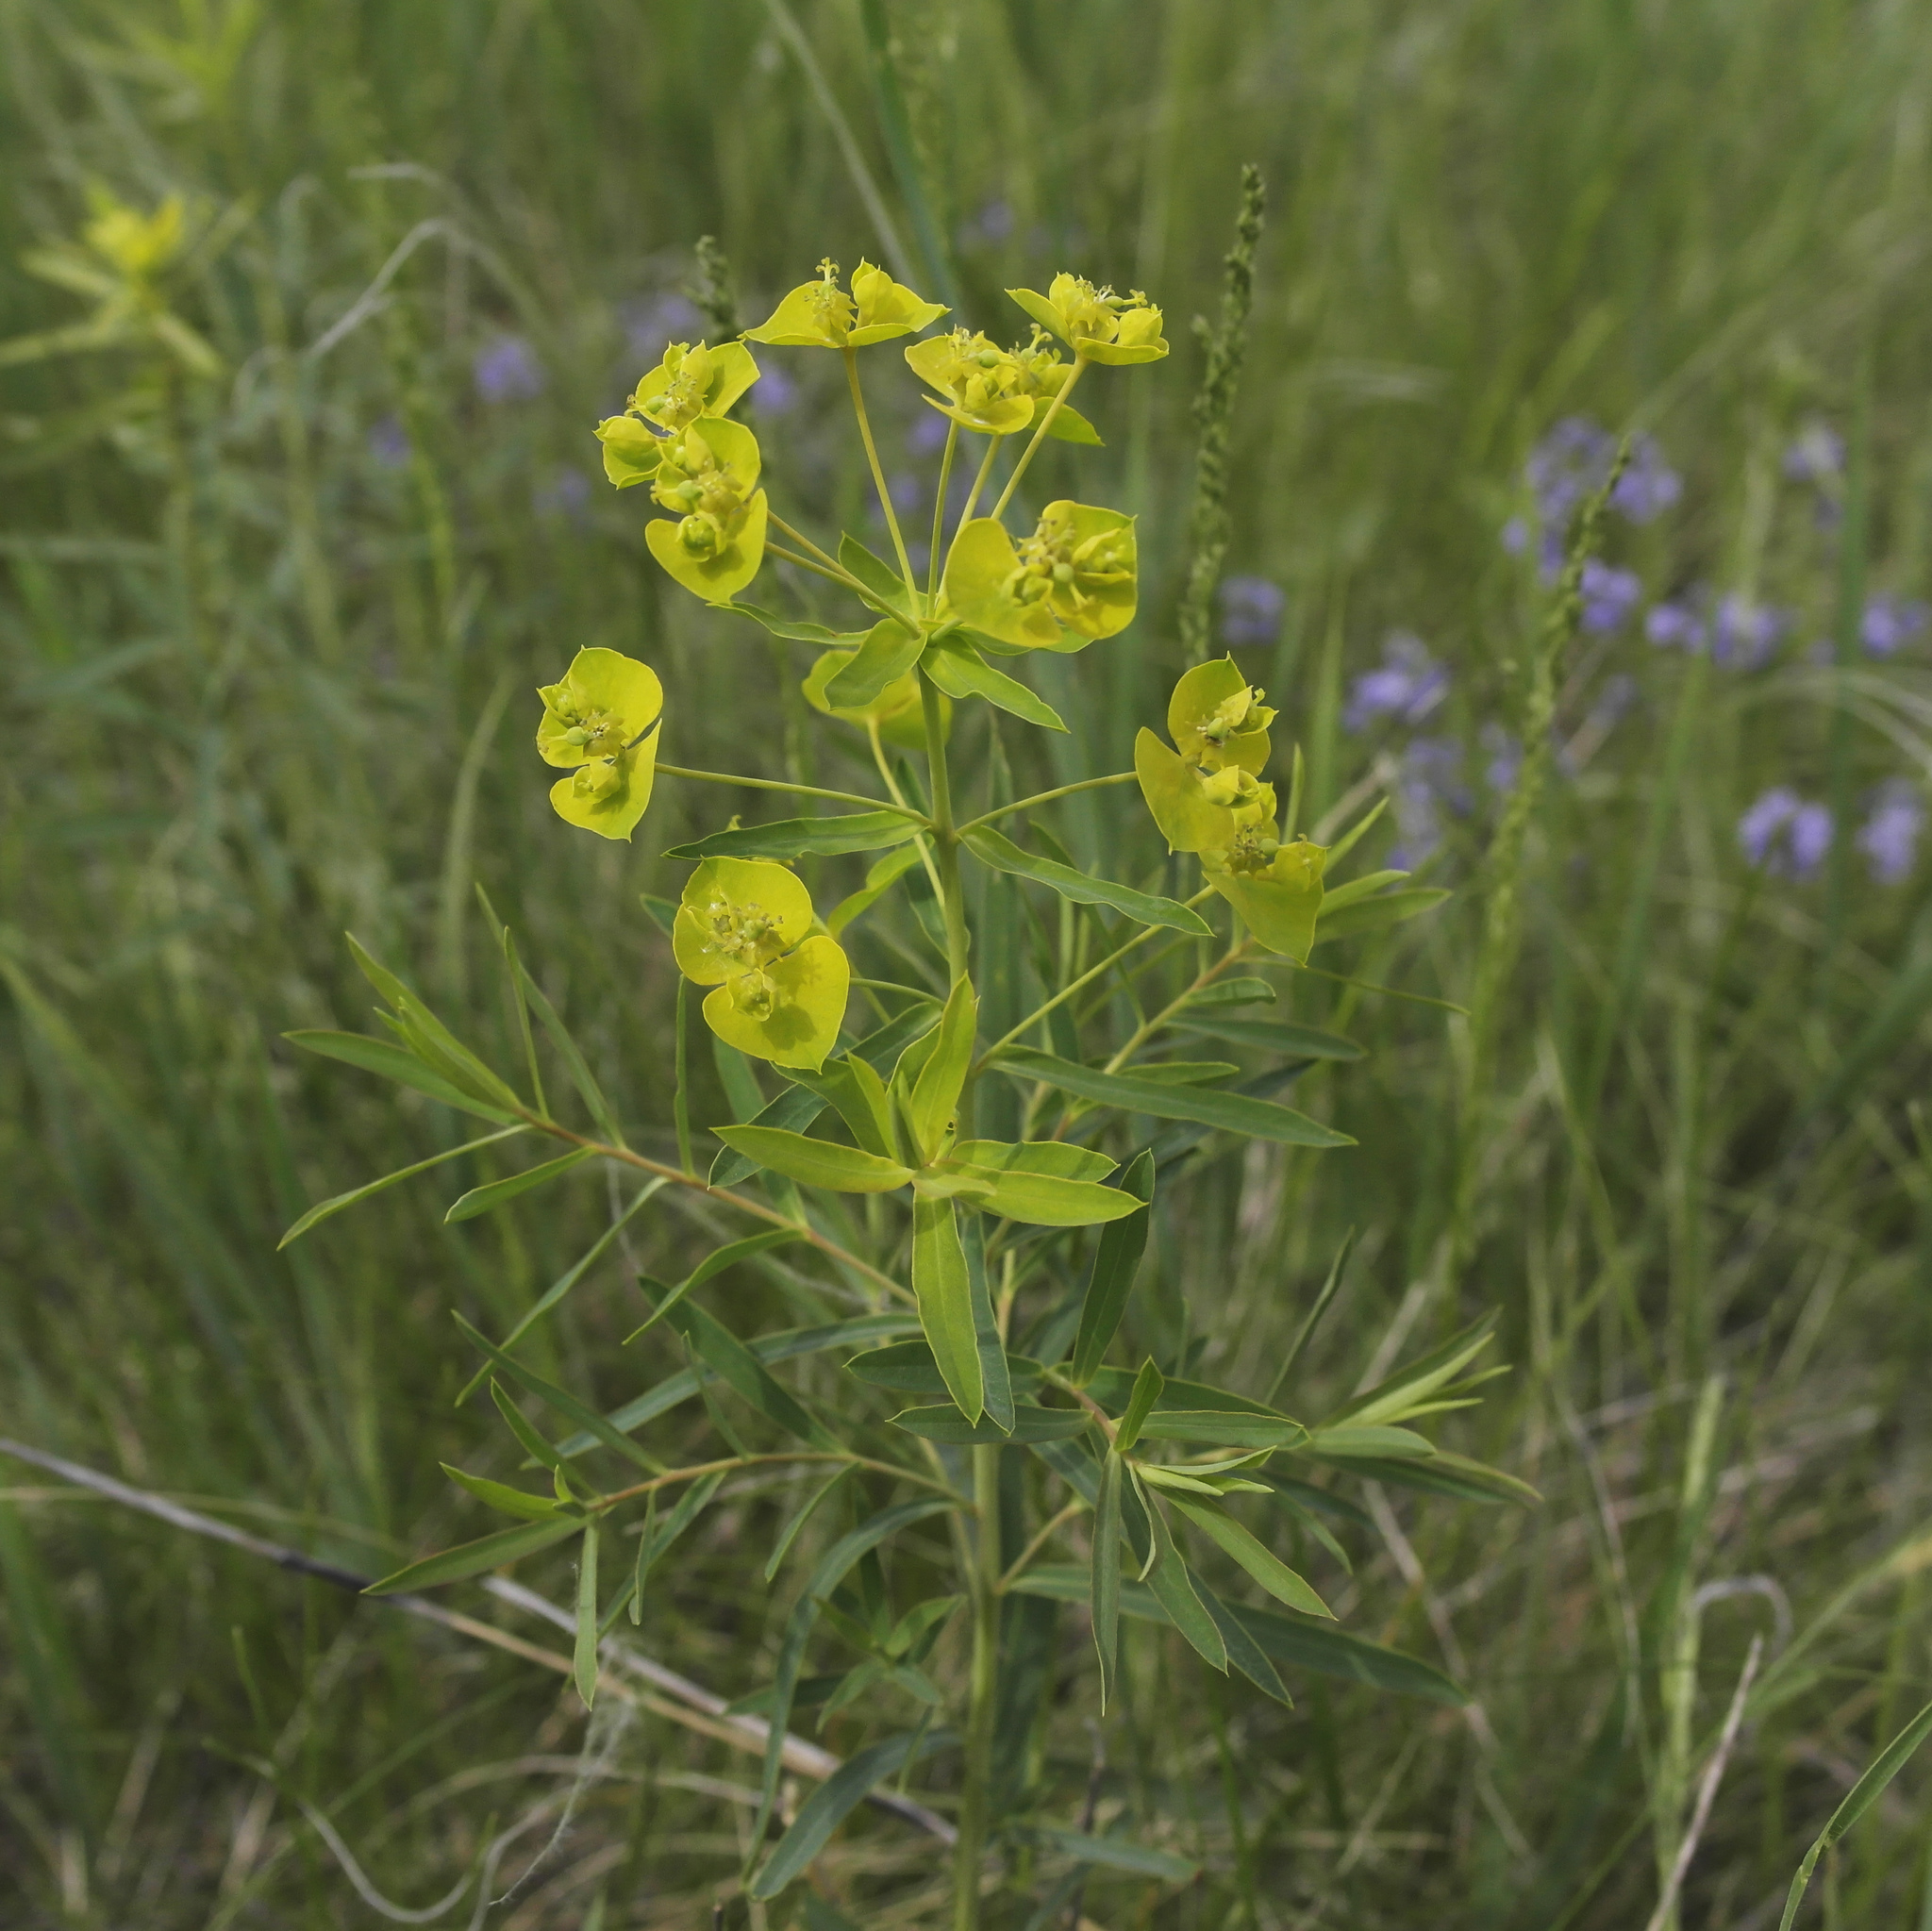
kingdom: Plantae
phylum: Tracheophyta
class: Magnoliopsida
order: Malpighiales
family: Euphorbiaceae
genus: Euphorbia
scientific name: Euphorbia virgata
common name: Leafy spurge
